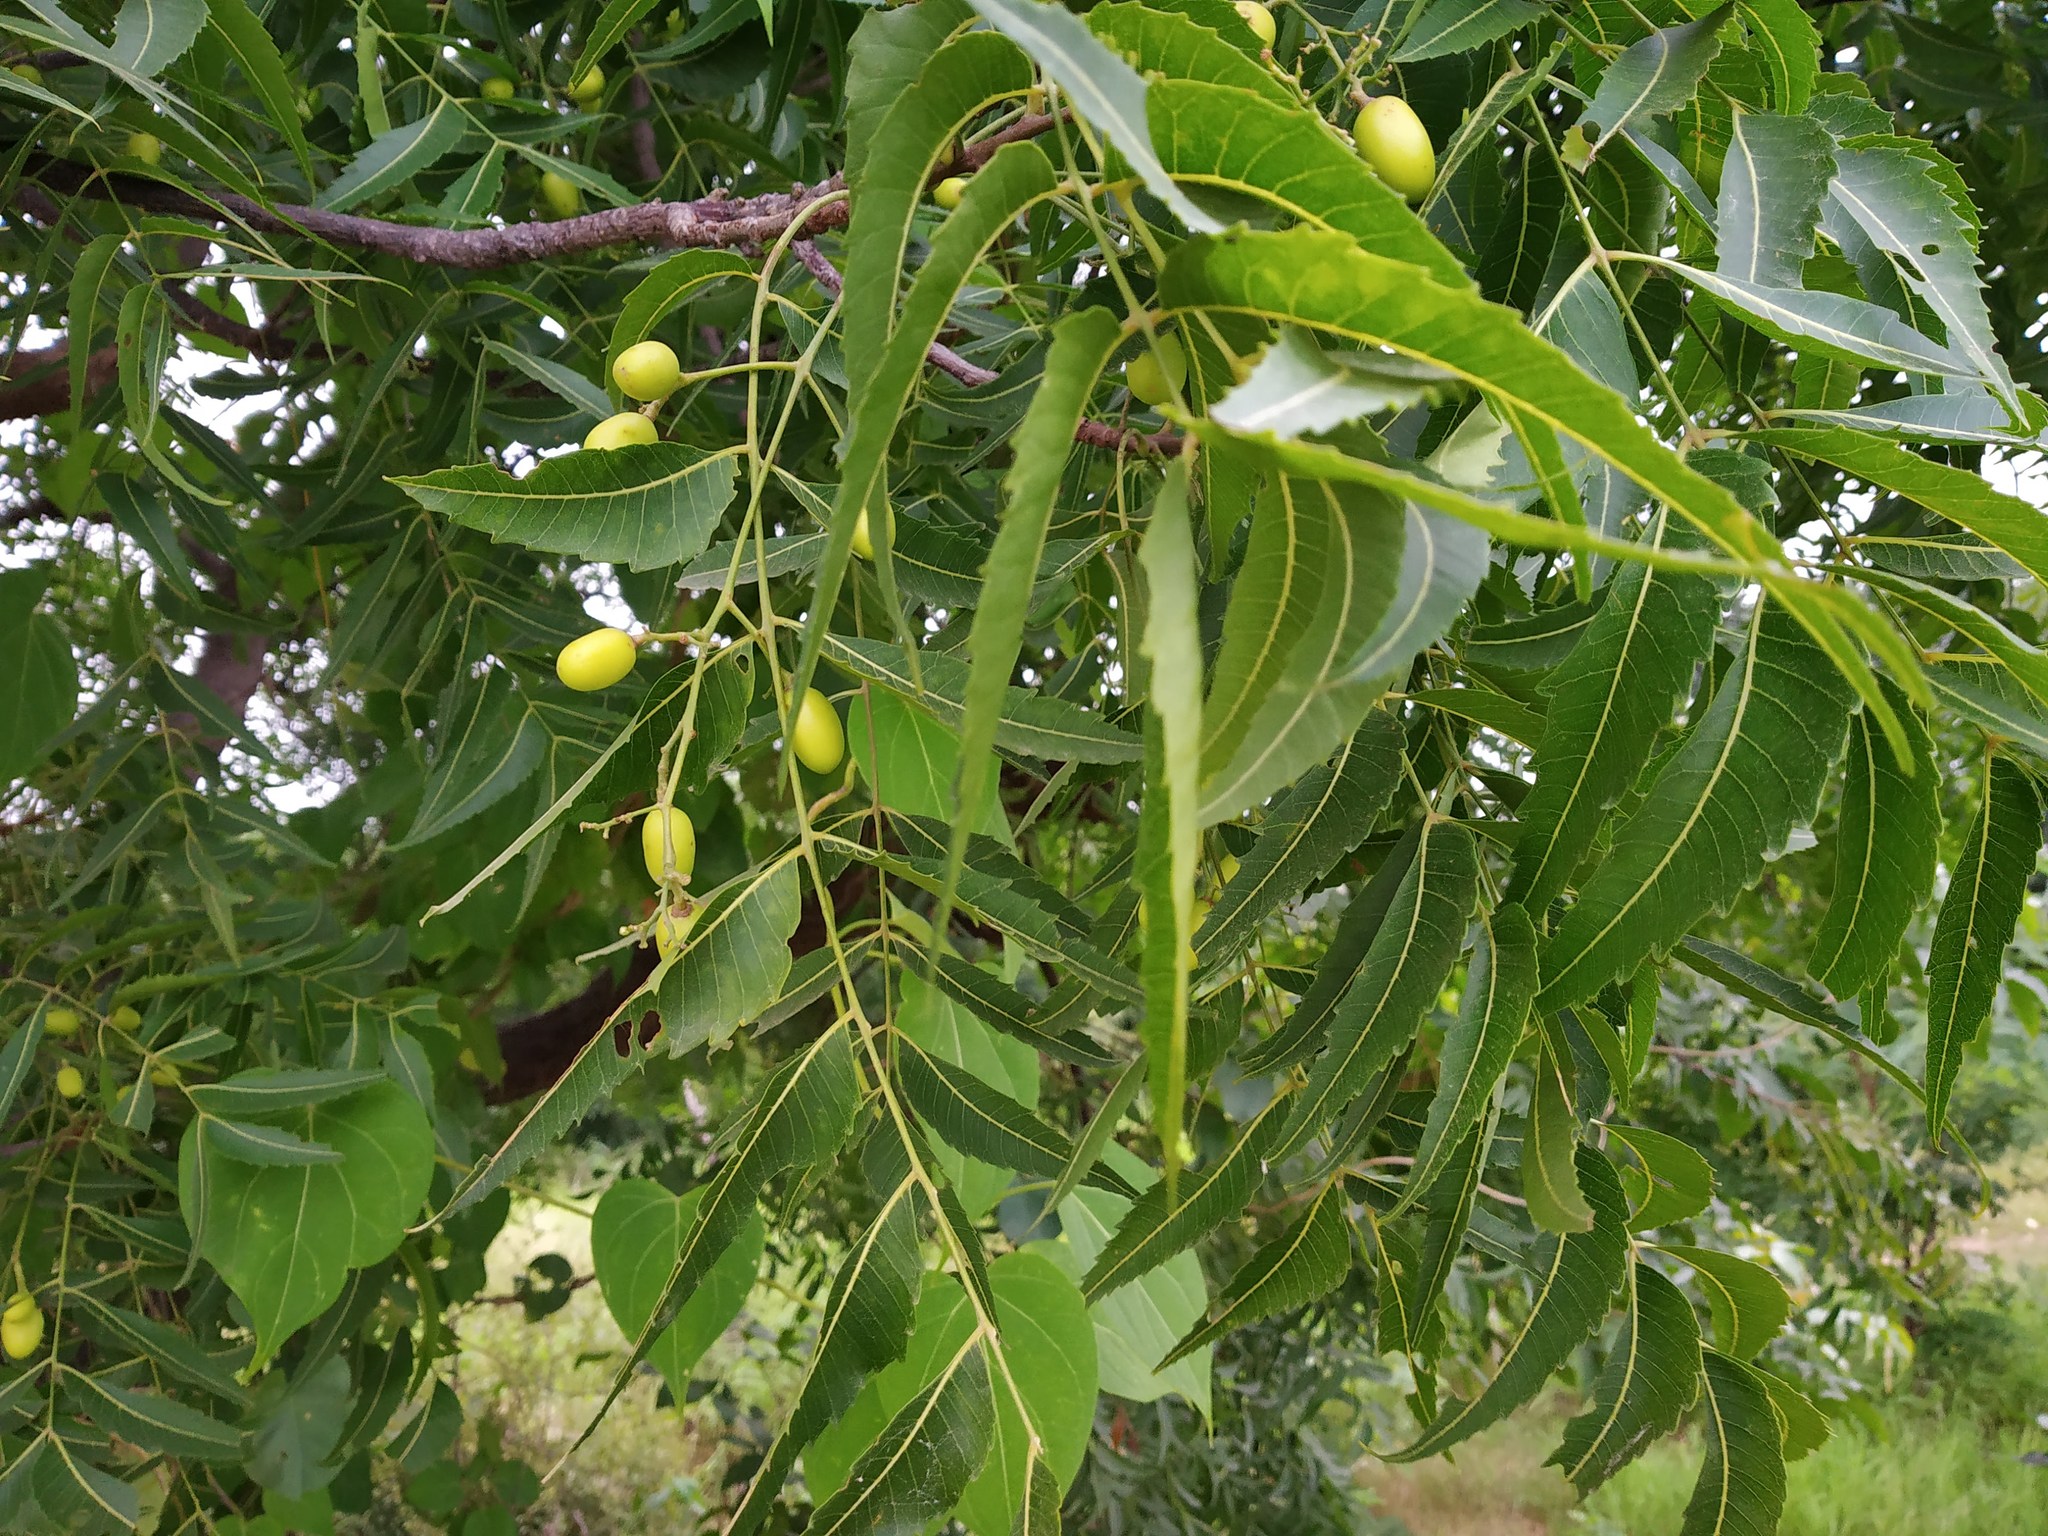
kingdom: Plantae
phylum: Tracheophyta
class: Magnoliopsida
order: Sapindales
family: Meliaceae
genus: Azadirachta
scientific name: Azadirachta indica
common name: Neem
